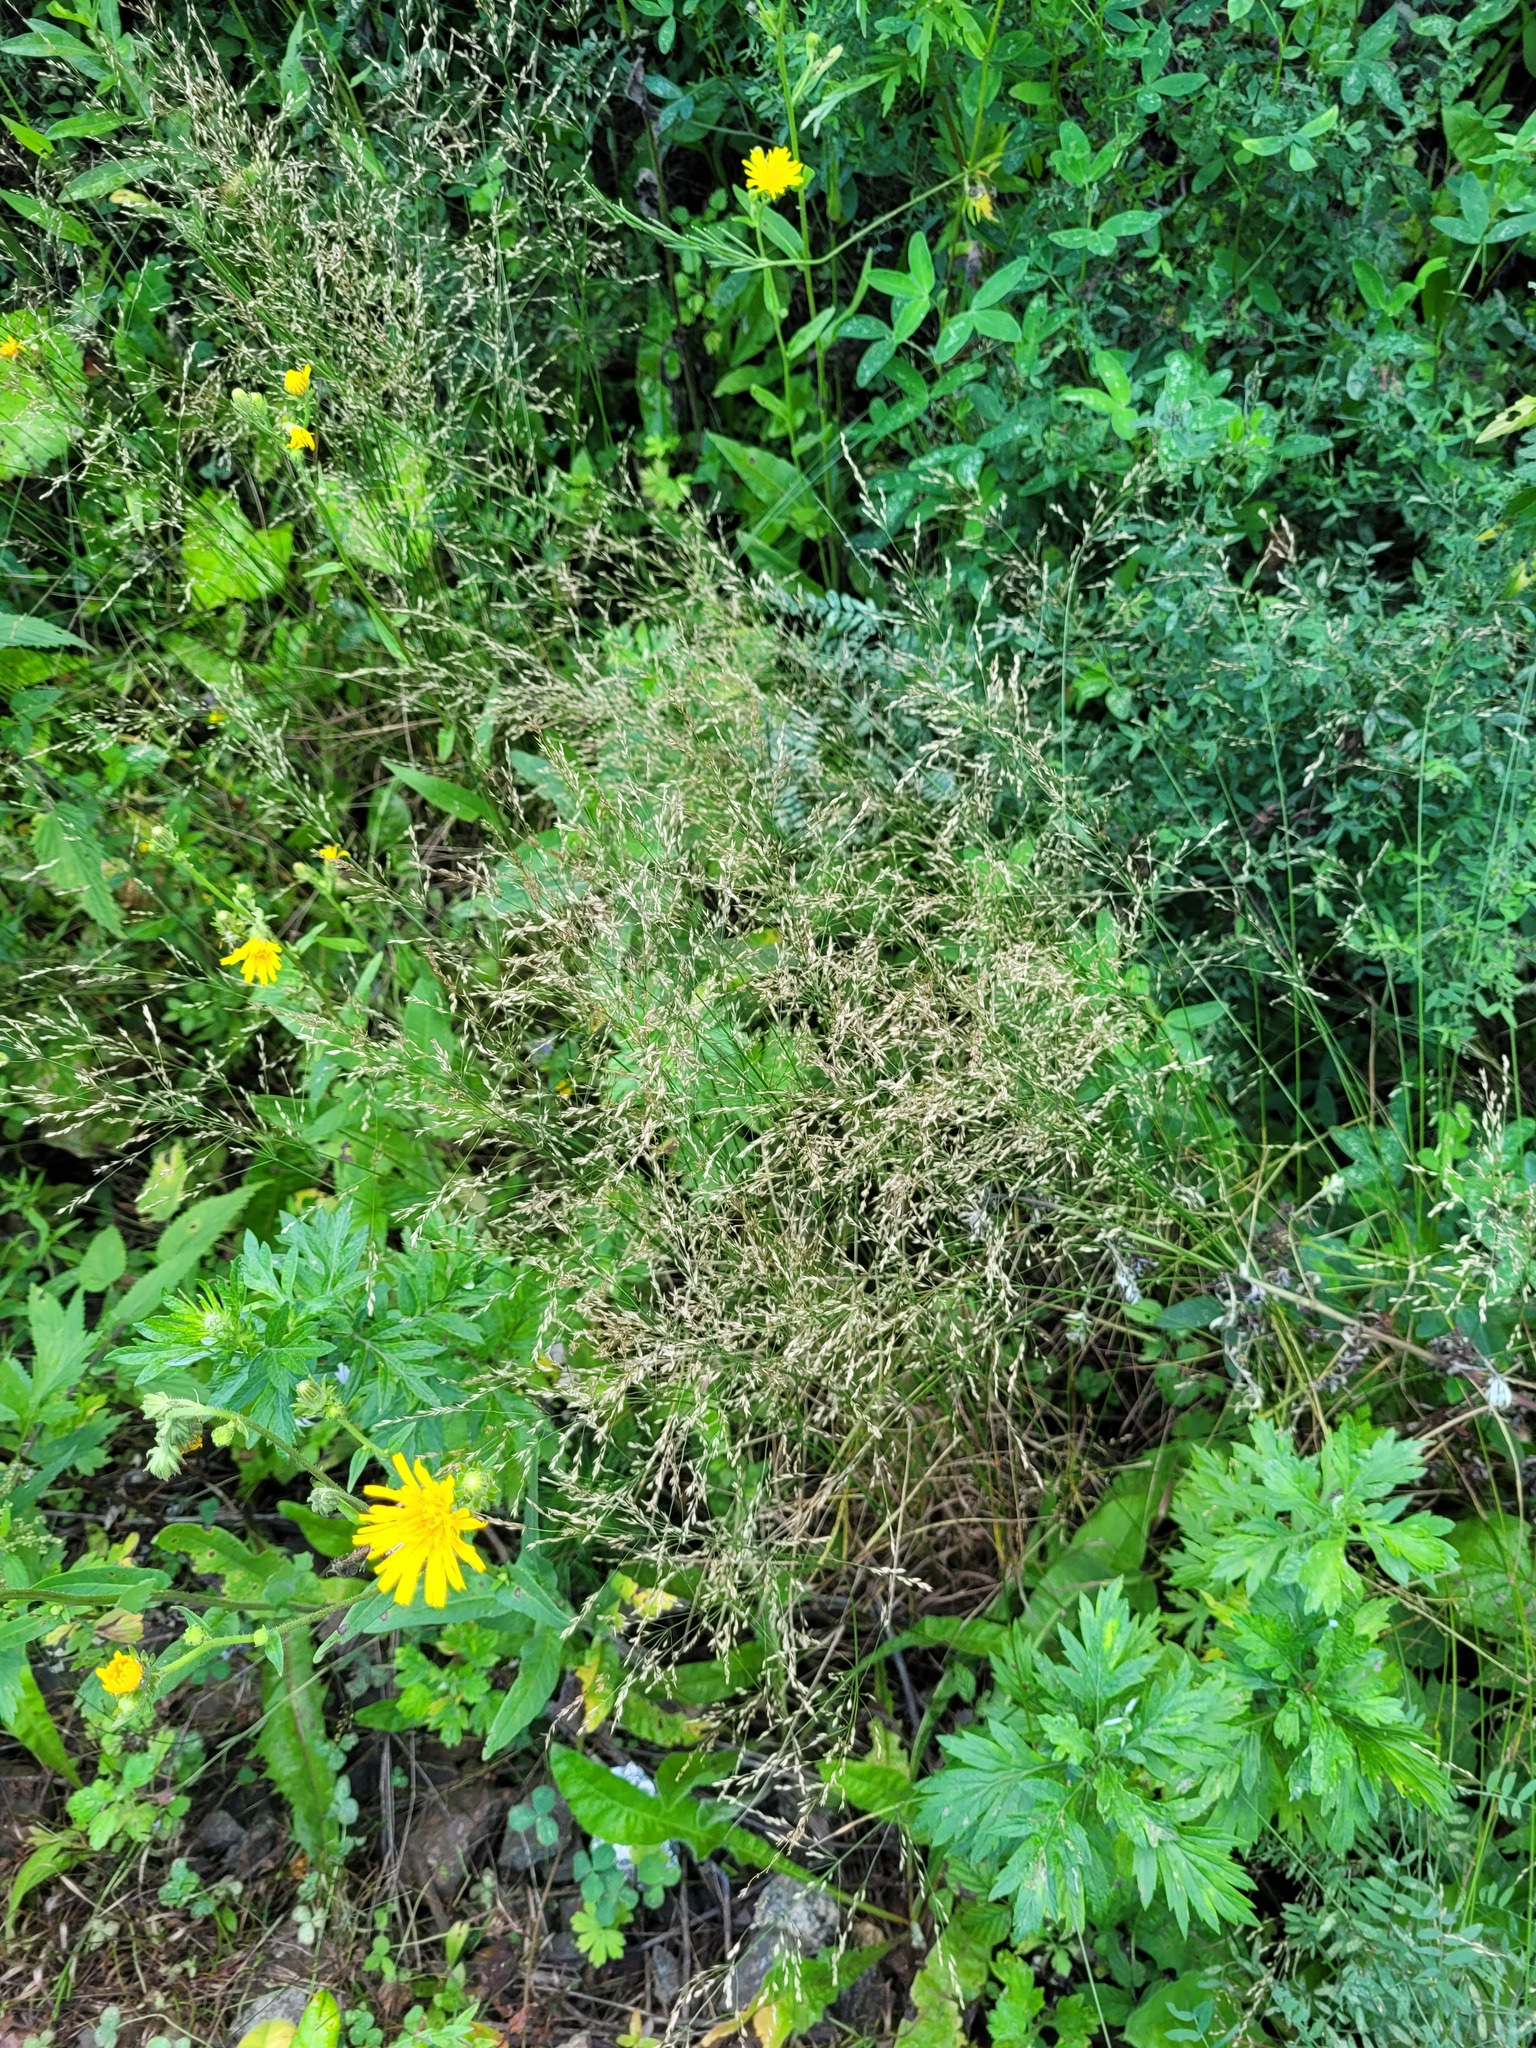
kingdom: Plantae
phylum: Tracheophyta
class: Liliopsida
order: Poales
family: Poaceae
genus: Poa
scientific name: Poa palustris
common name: Swamp meadow-grass
